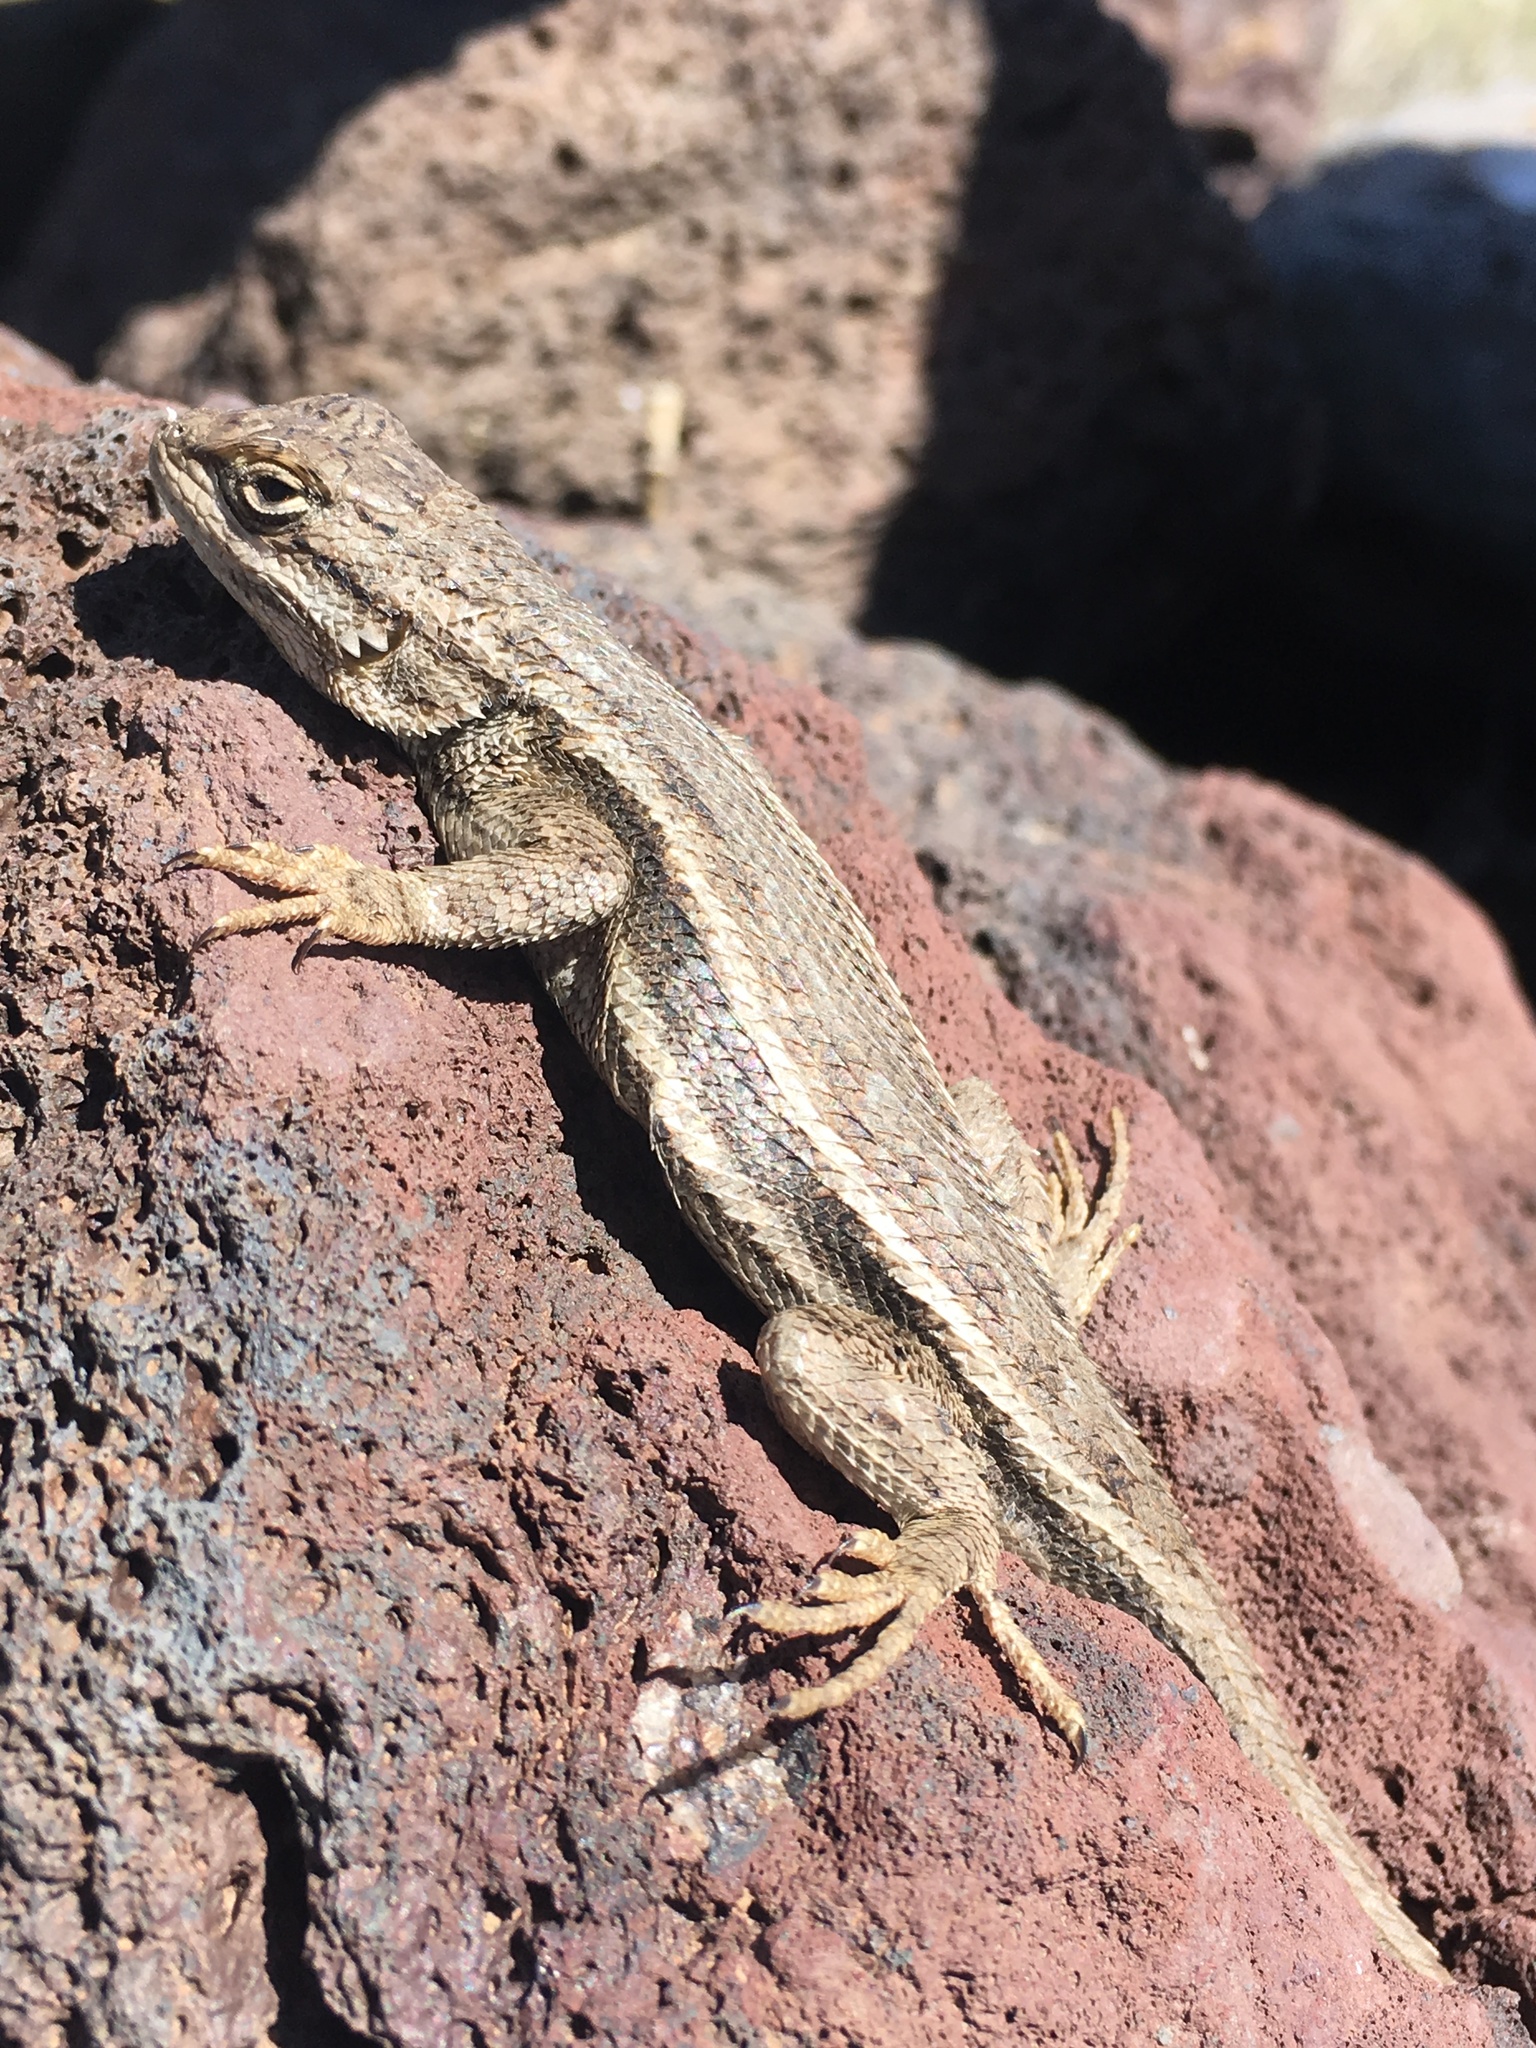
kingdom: Animalia
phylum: Chordata
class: Squamata
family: Phrynosomatidae
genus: Sceloporus
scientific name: Sceloporus cowlesi
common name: White sands prairie lizard
